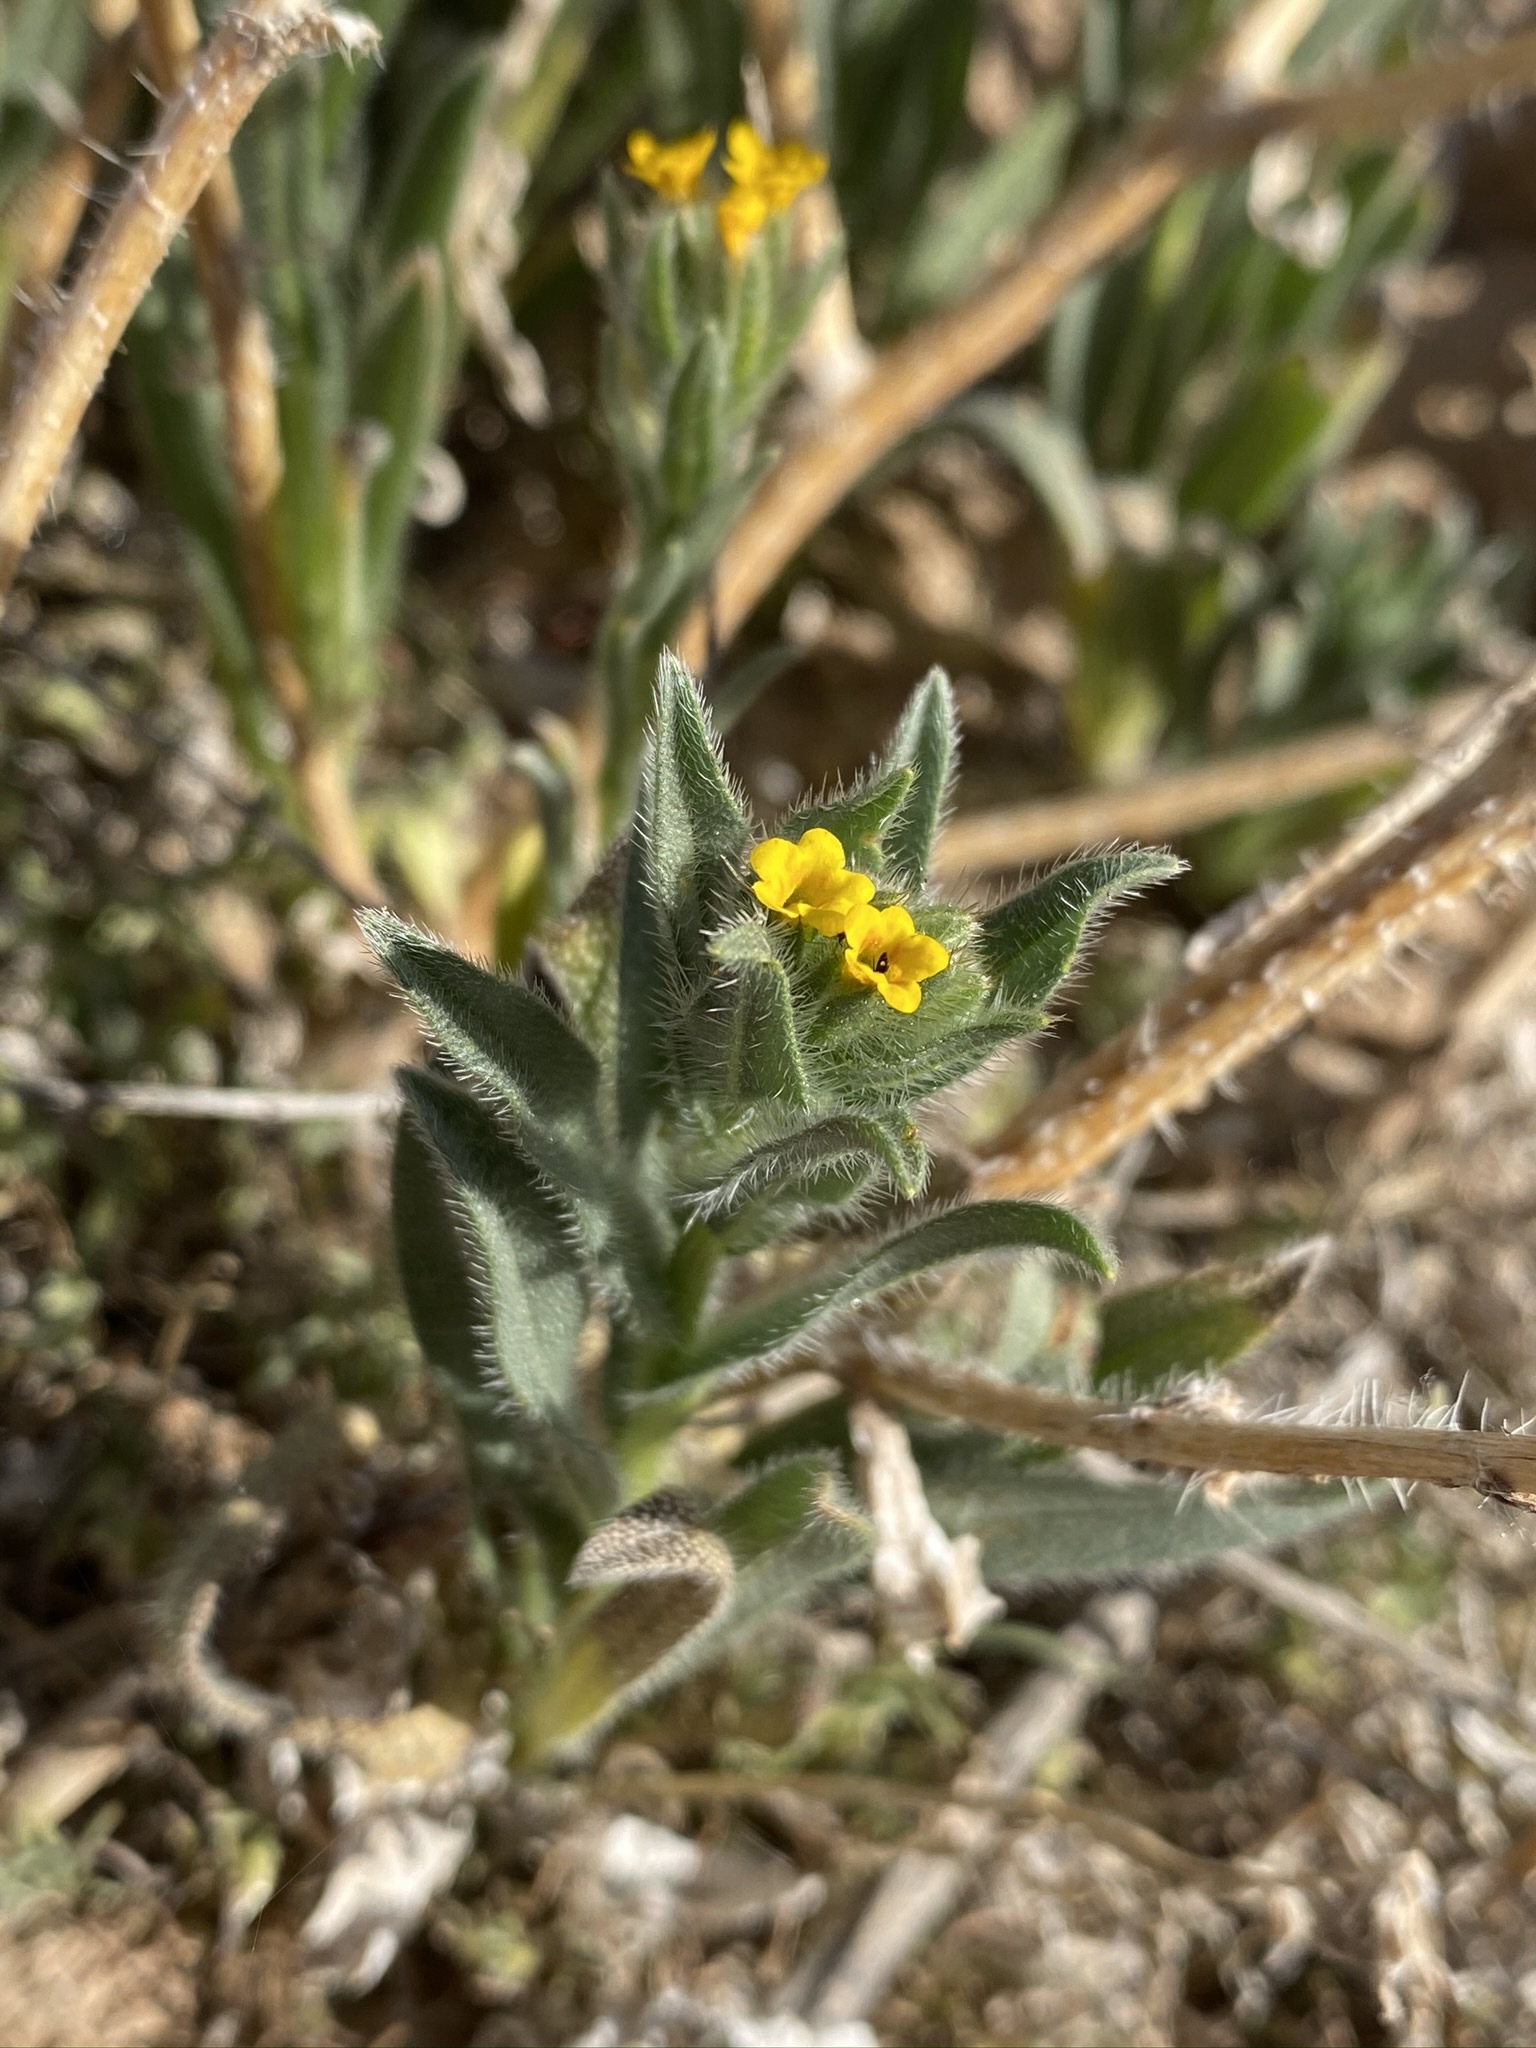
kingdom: Plantae
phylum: Tracheophyta
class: Magnoliopsida
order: Boraginales
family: Boraginaceae
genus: Amsinckia
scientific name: Amsinckia tessellata
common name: Tessellate fiddleneck
